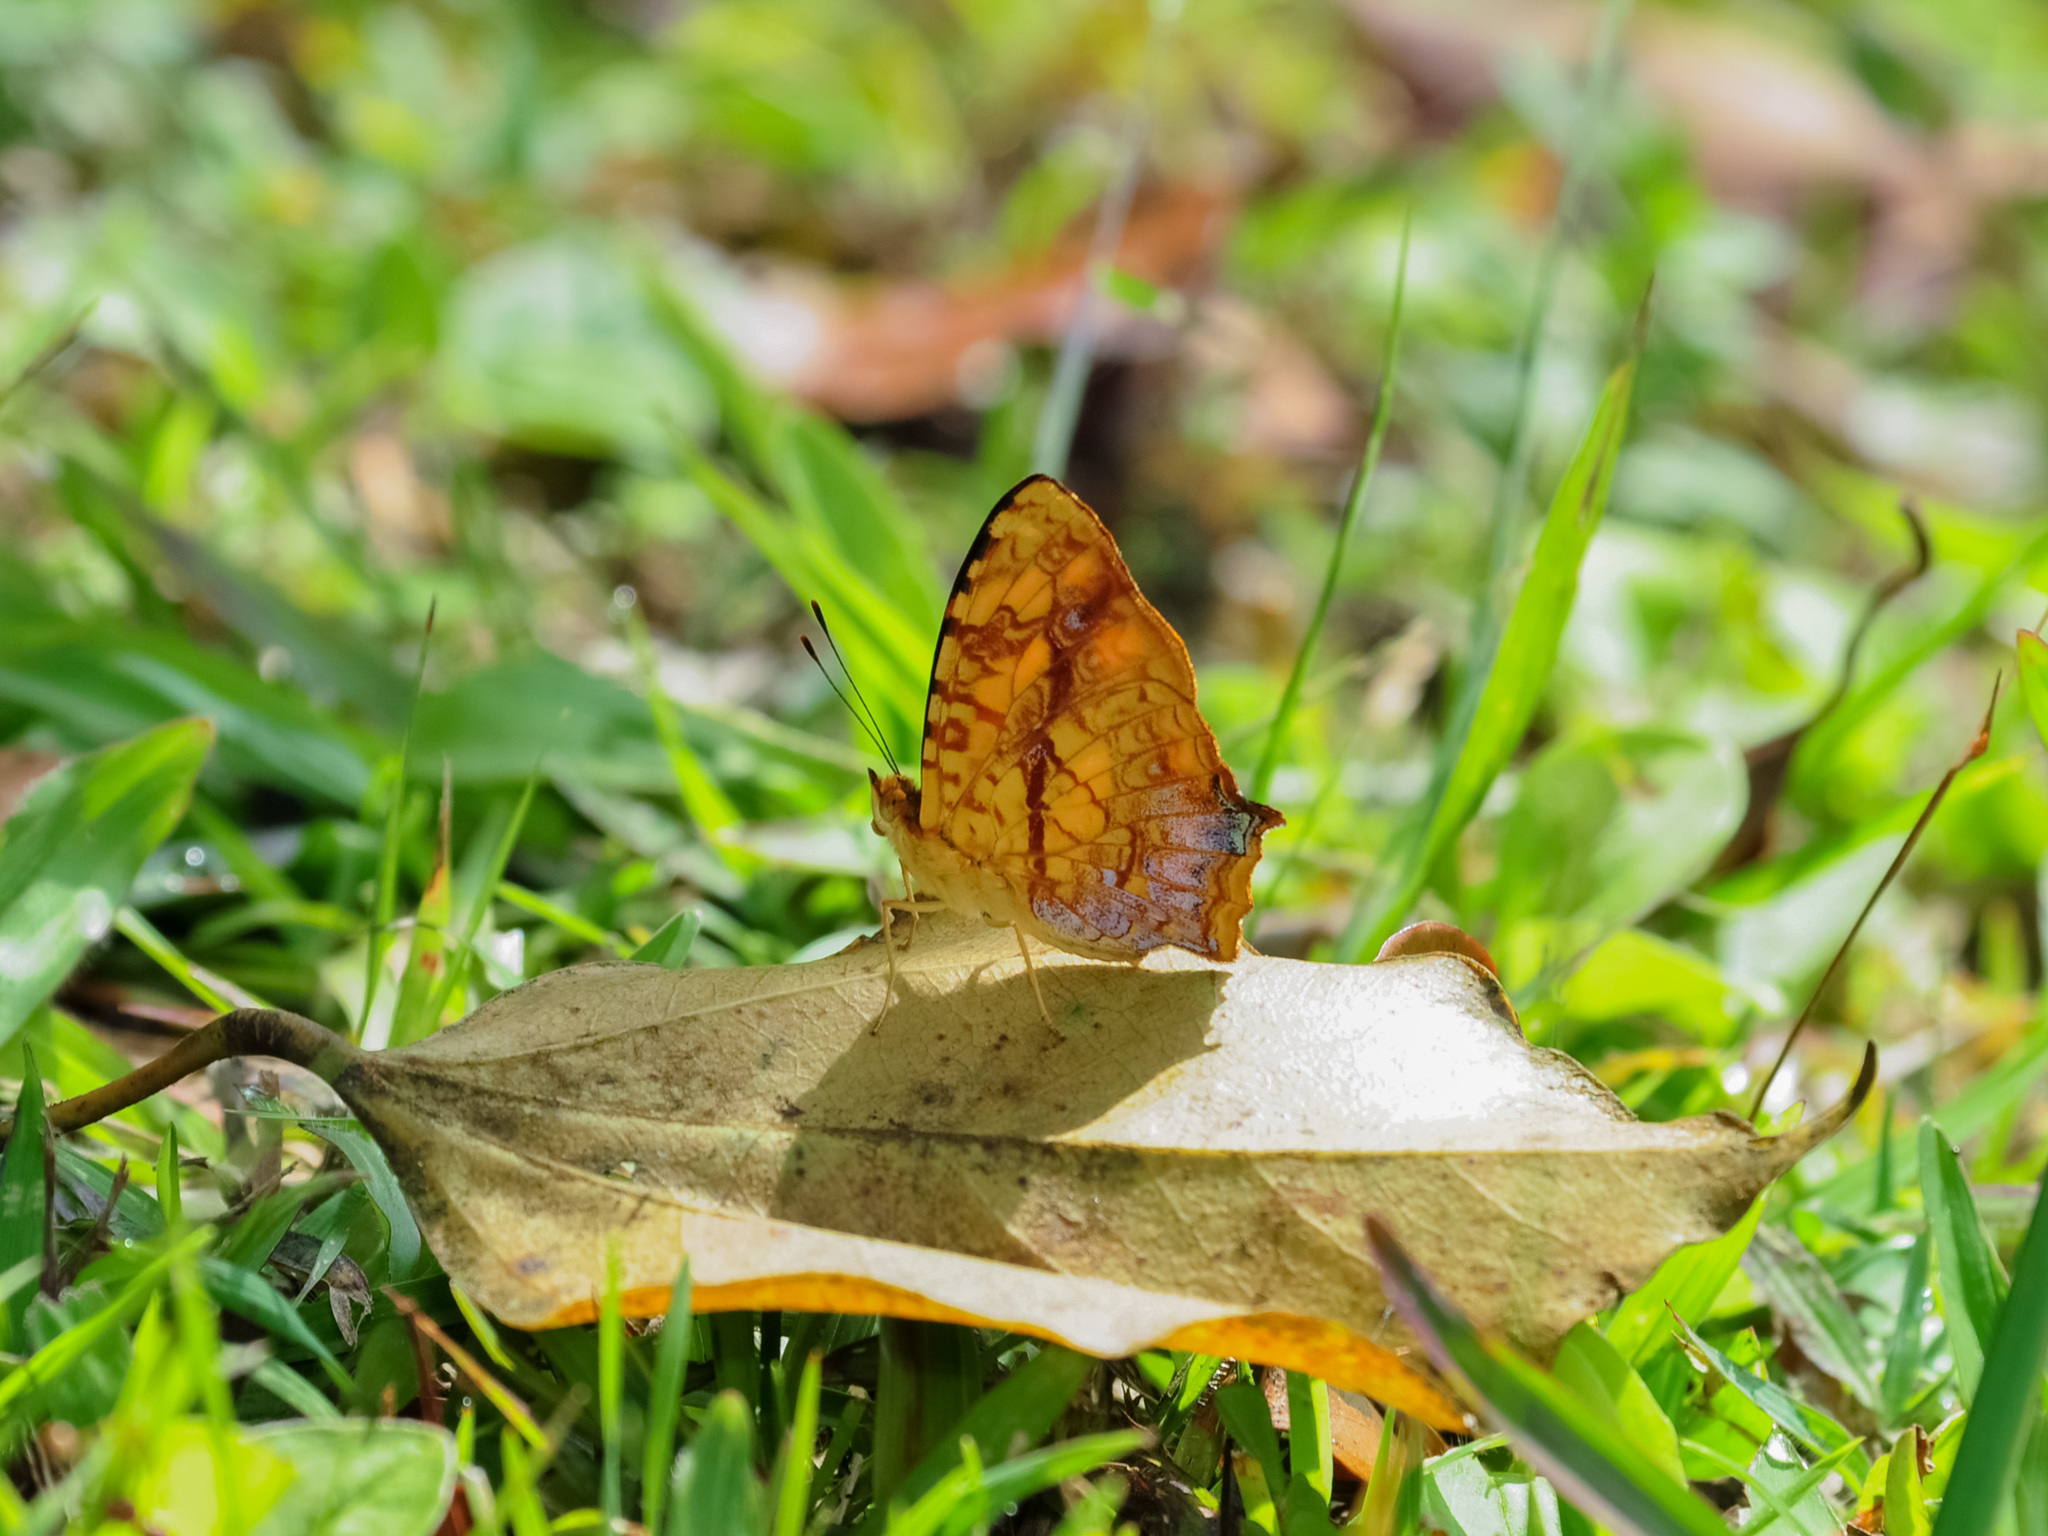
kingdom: Animalia
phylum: Arthropoda
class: Insecta
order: Lepidoptera
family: Nymphalidae
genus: Symbrenthia
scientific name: Symbrenthia hypselis
